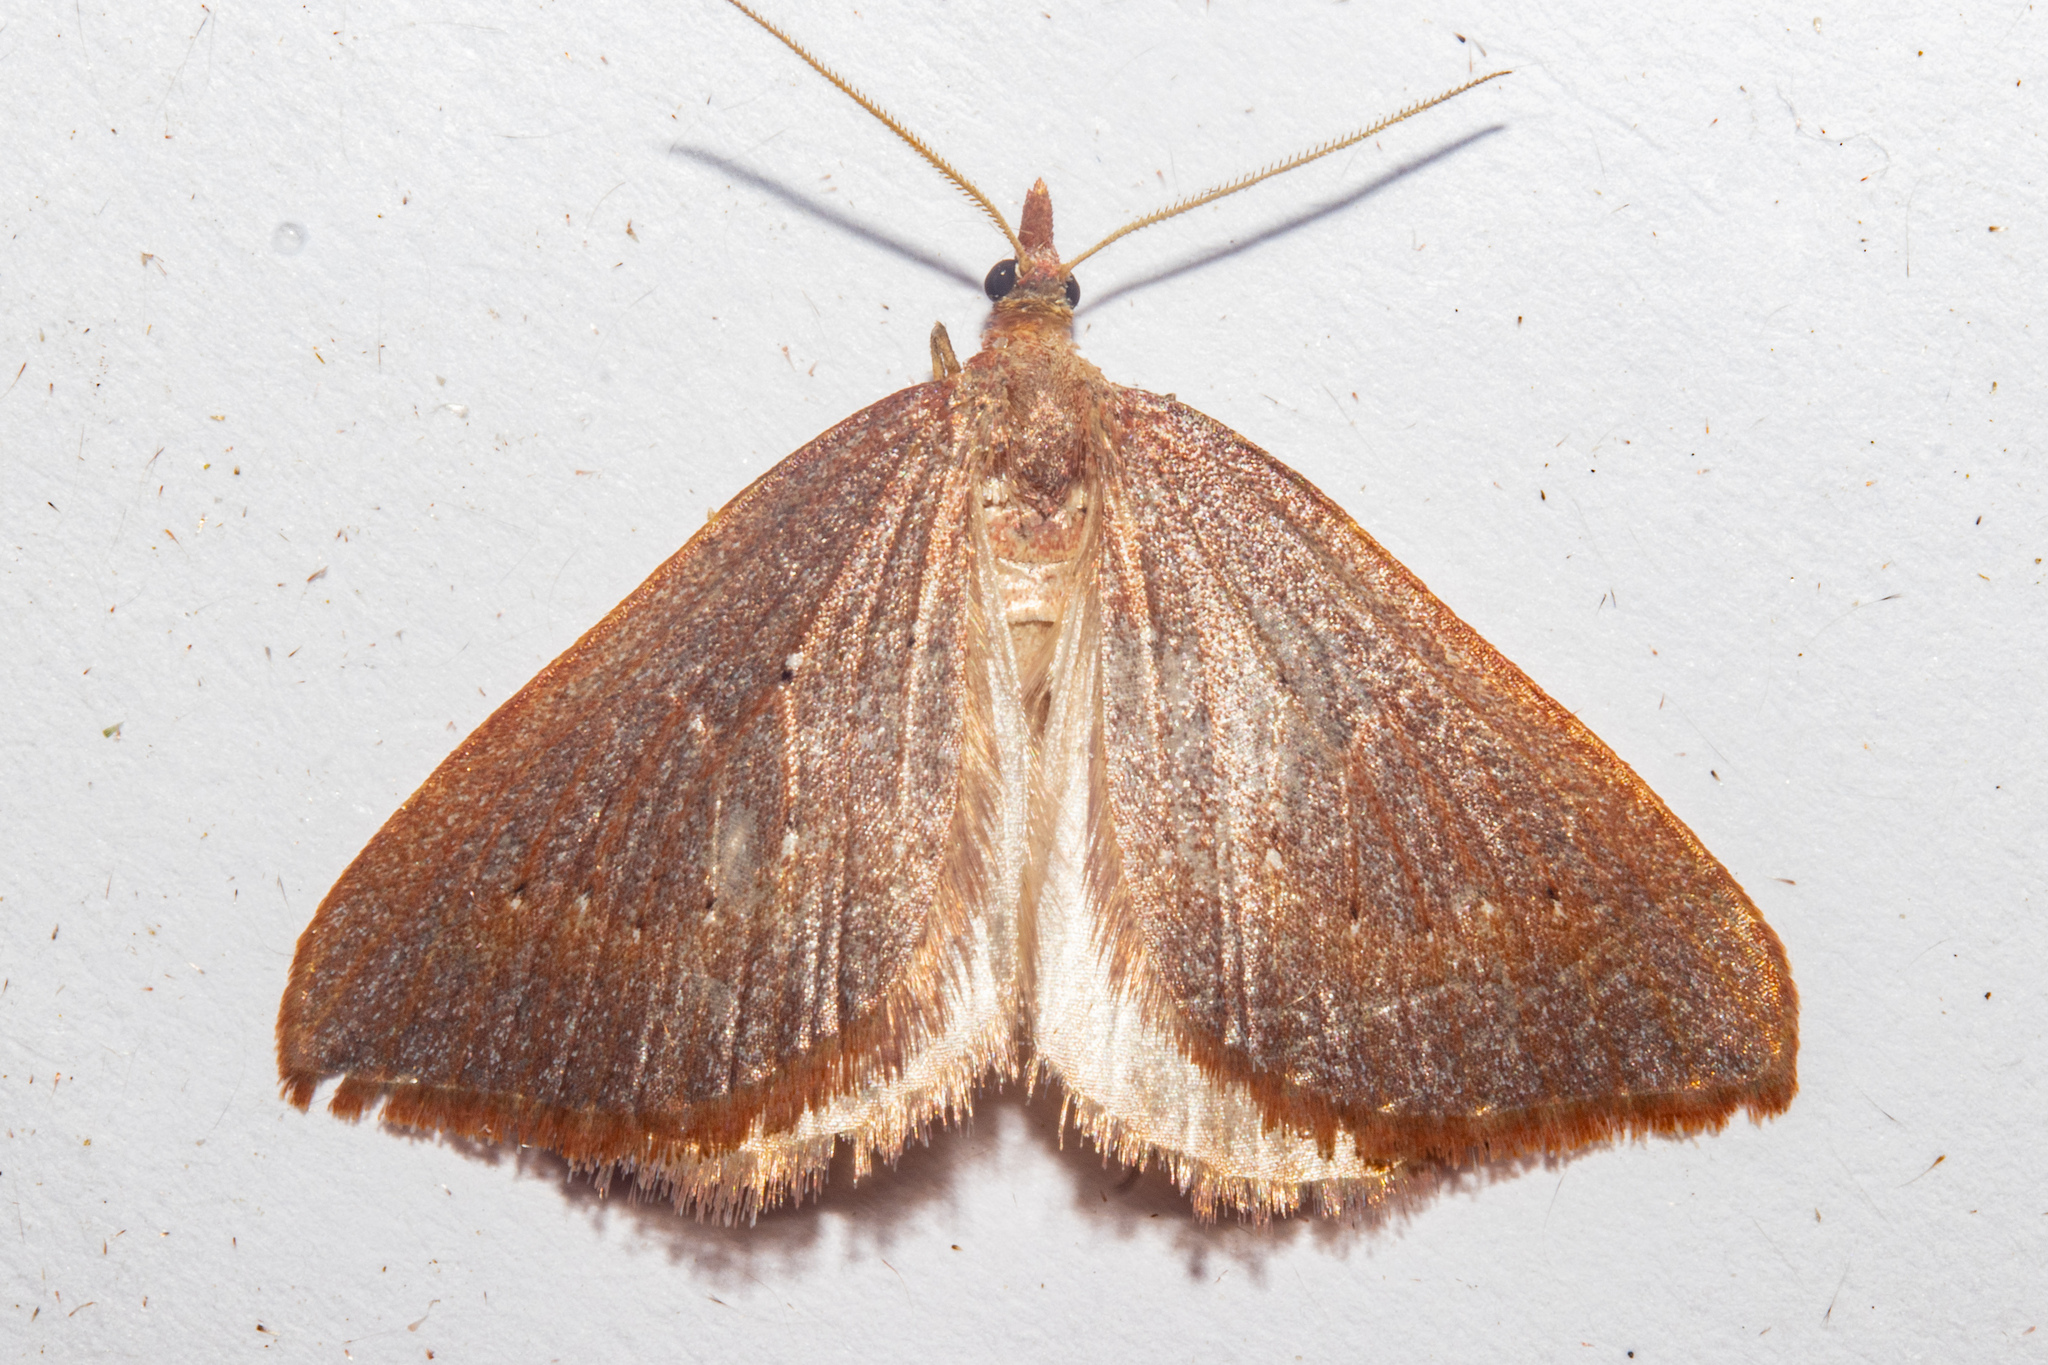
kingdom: Animalia
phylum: Arthropoda
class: Insecta
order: Lepidoptera
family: Geometridae
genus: Xanthorhoe
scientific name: Xanthorhoe occulta
